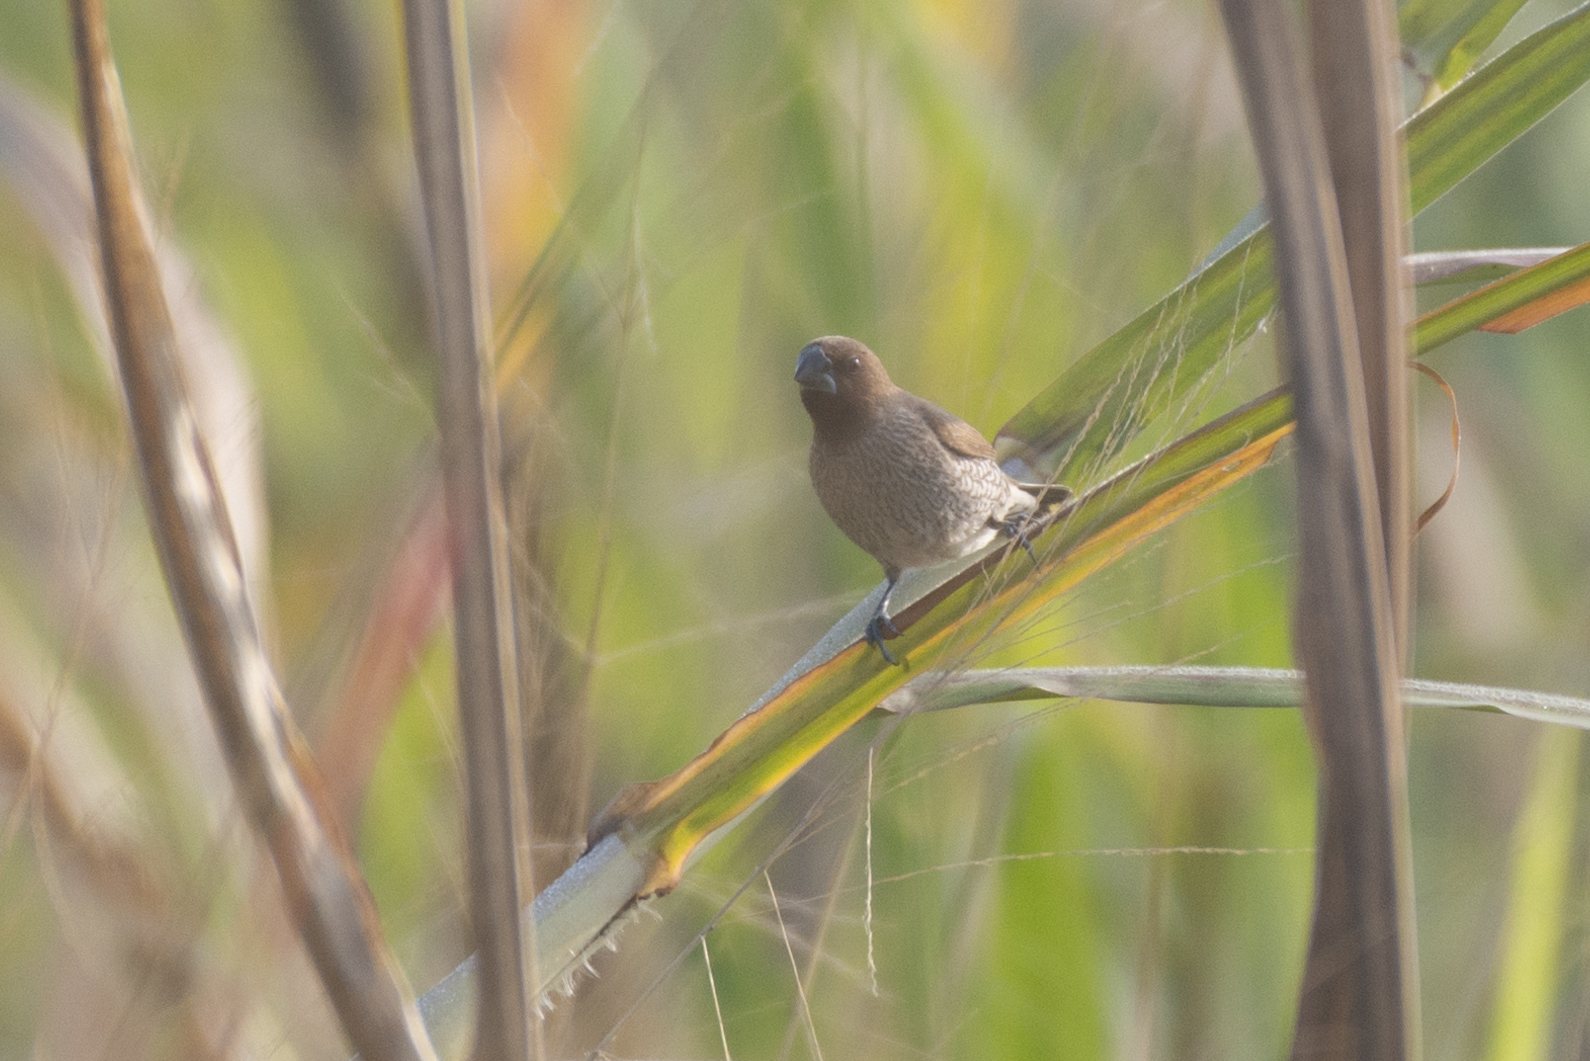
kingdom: Animalia
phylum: Chordata
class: Aves
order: Passeriformes
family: Estrildidae
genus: Lonchura
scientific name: Lonchura punctulata
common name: Scaly-breasted munia
